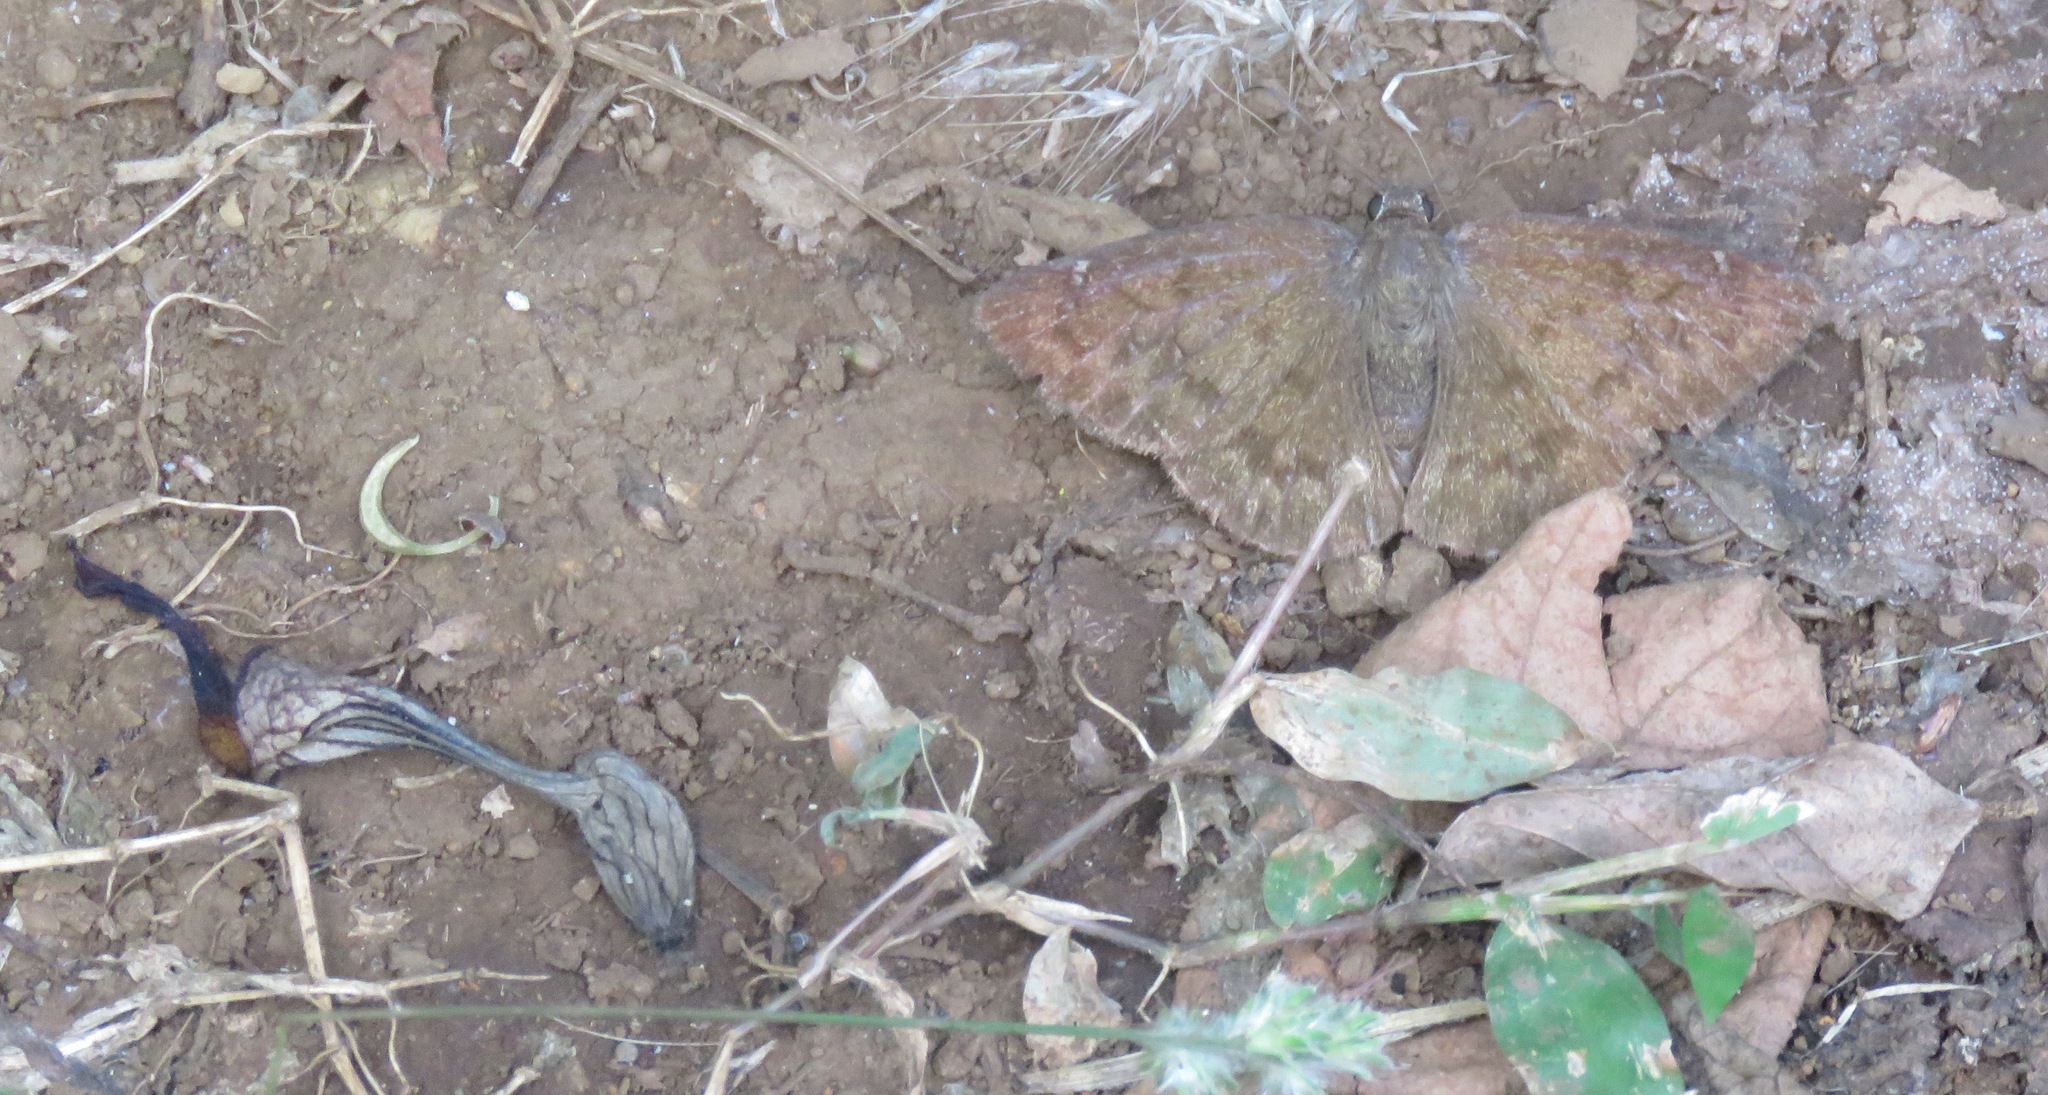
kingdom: Animalia
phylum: Arthropoda
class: Insecta
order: Lepidoptera
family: Hesperiidae
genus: Typhedanus
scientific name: Typhedanus
